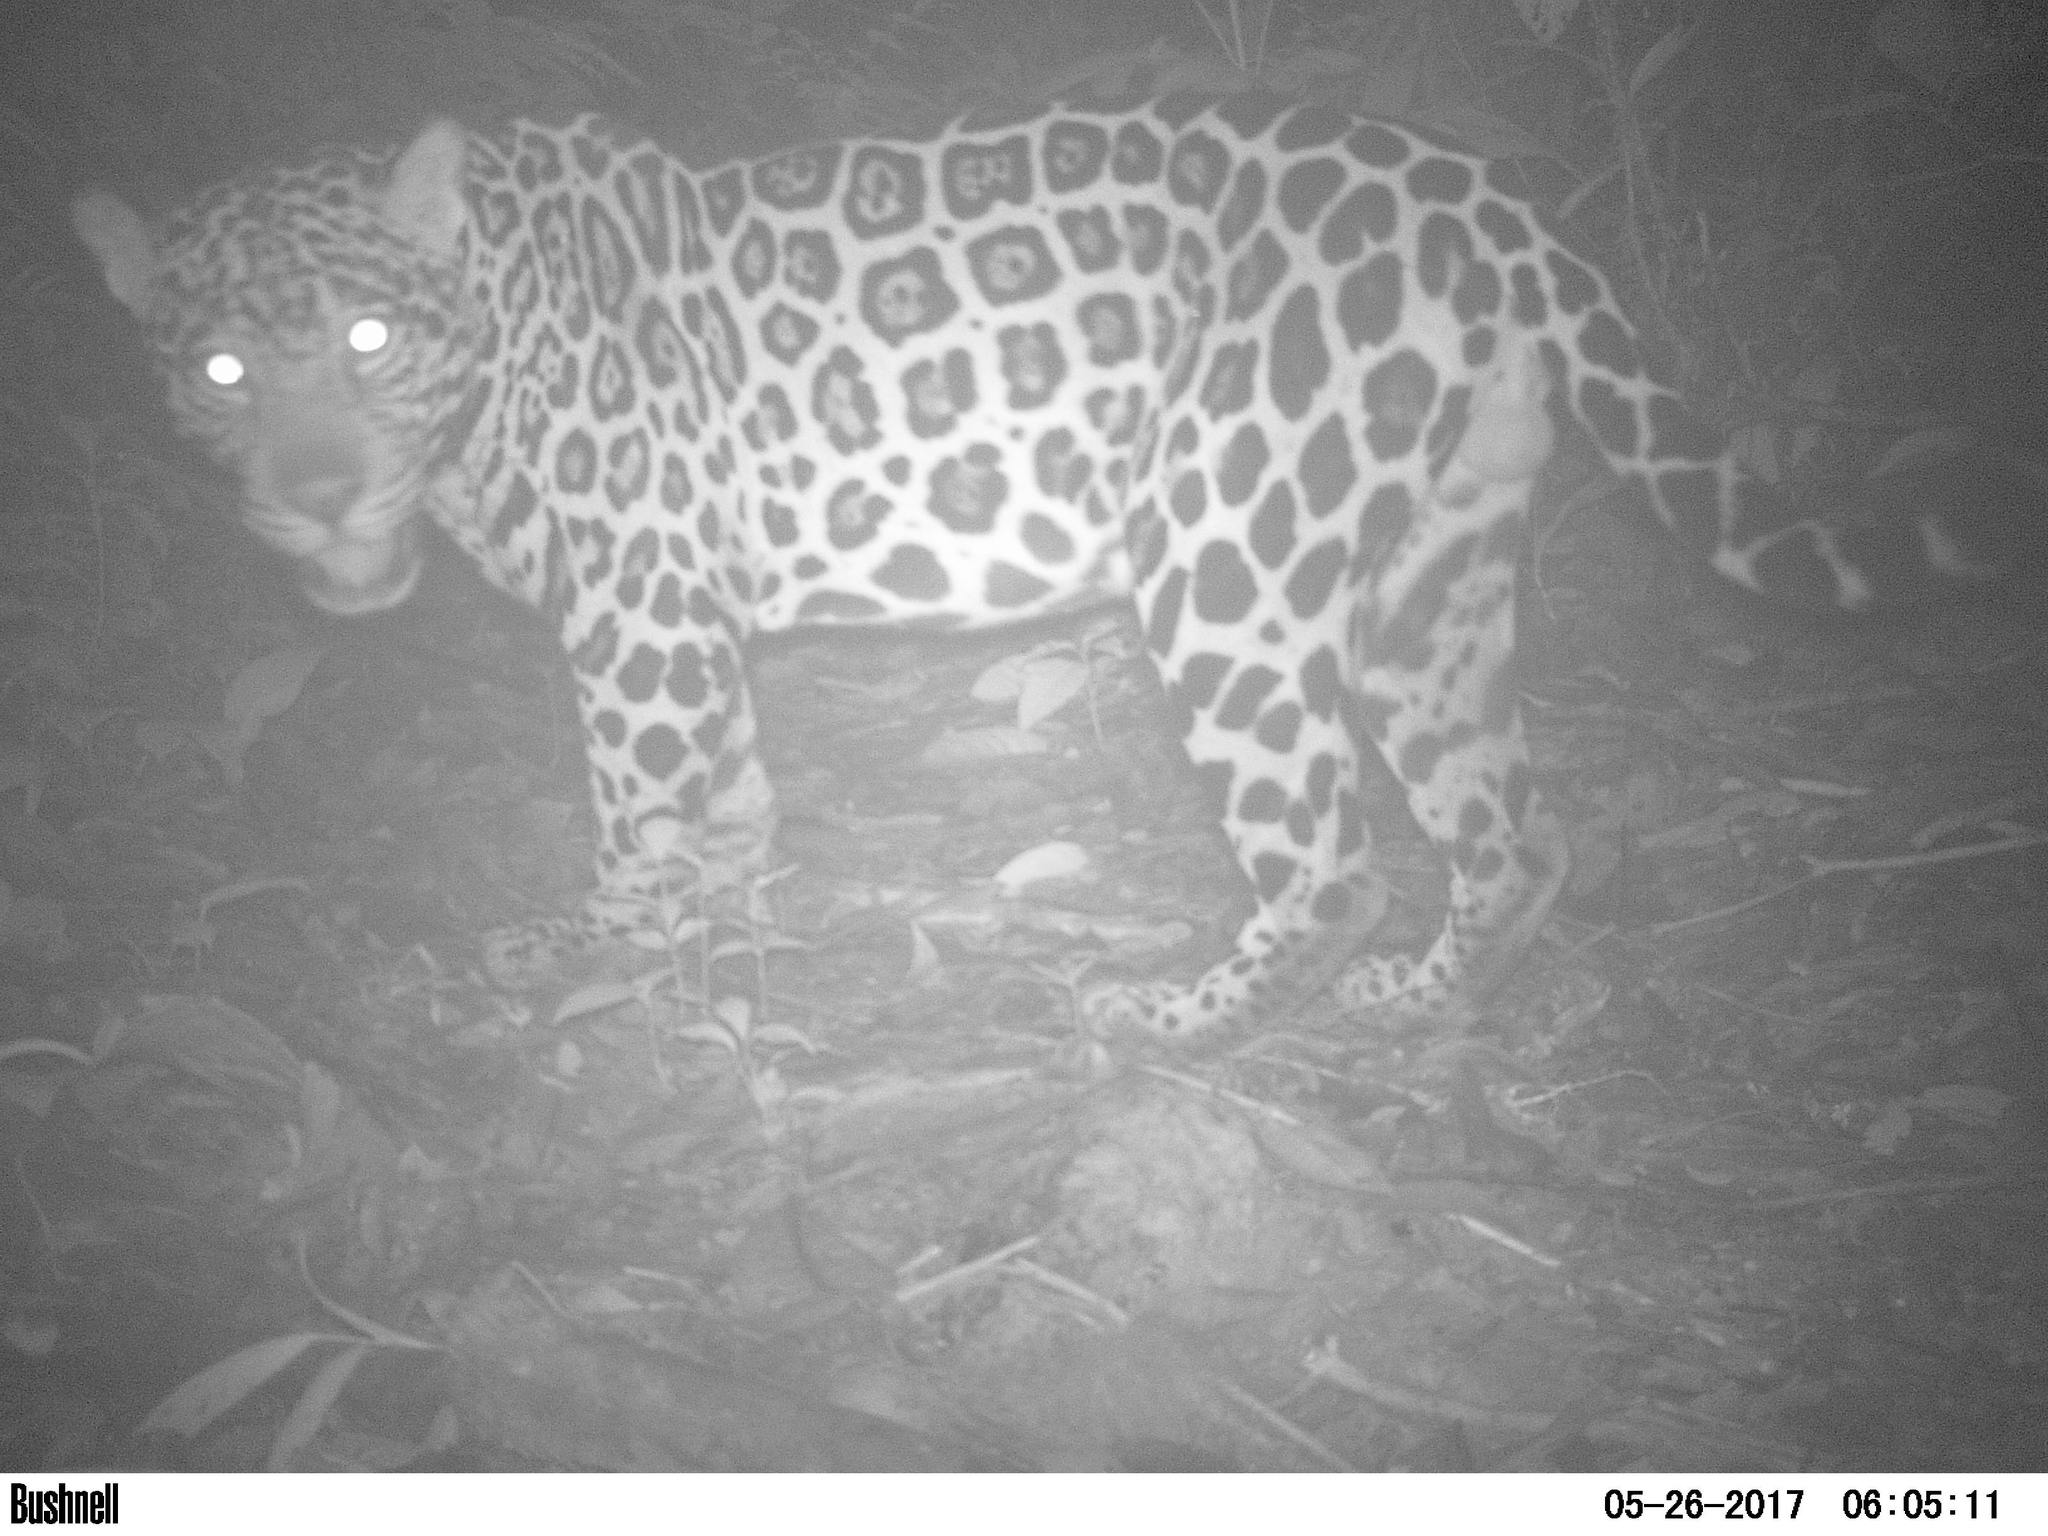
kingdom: Animalia
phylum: Chordata
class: Mammalia
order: Carnivora
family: Felidae
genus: Panthera
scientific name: Panthera onca
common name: Jaguar
